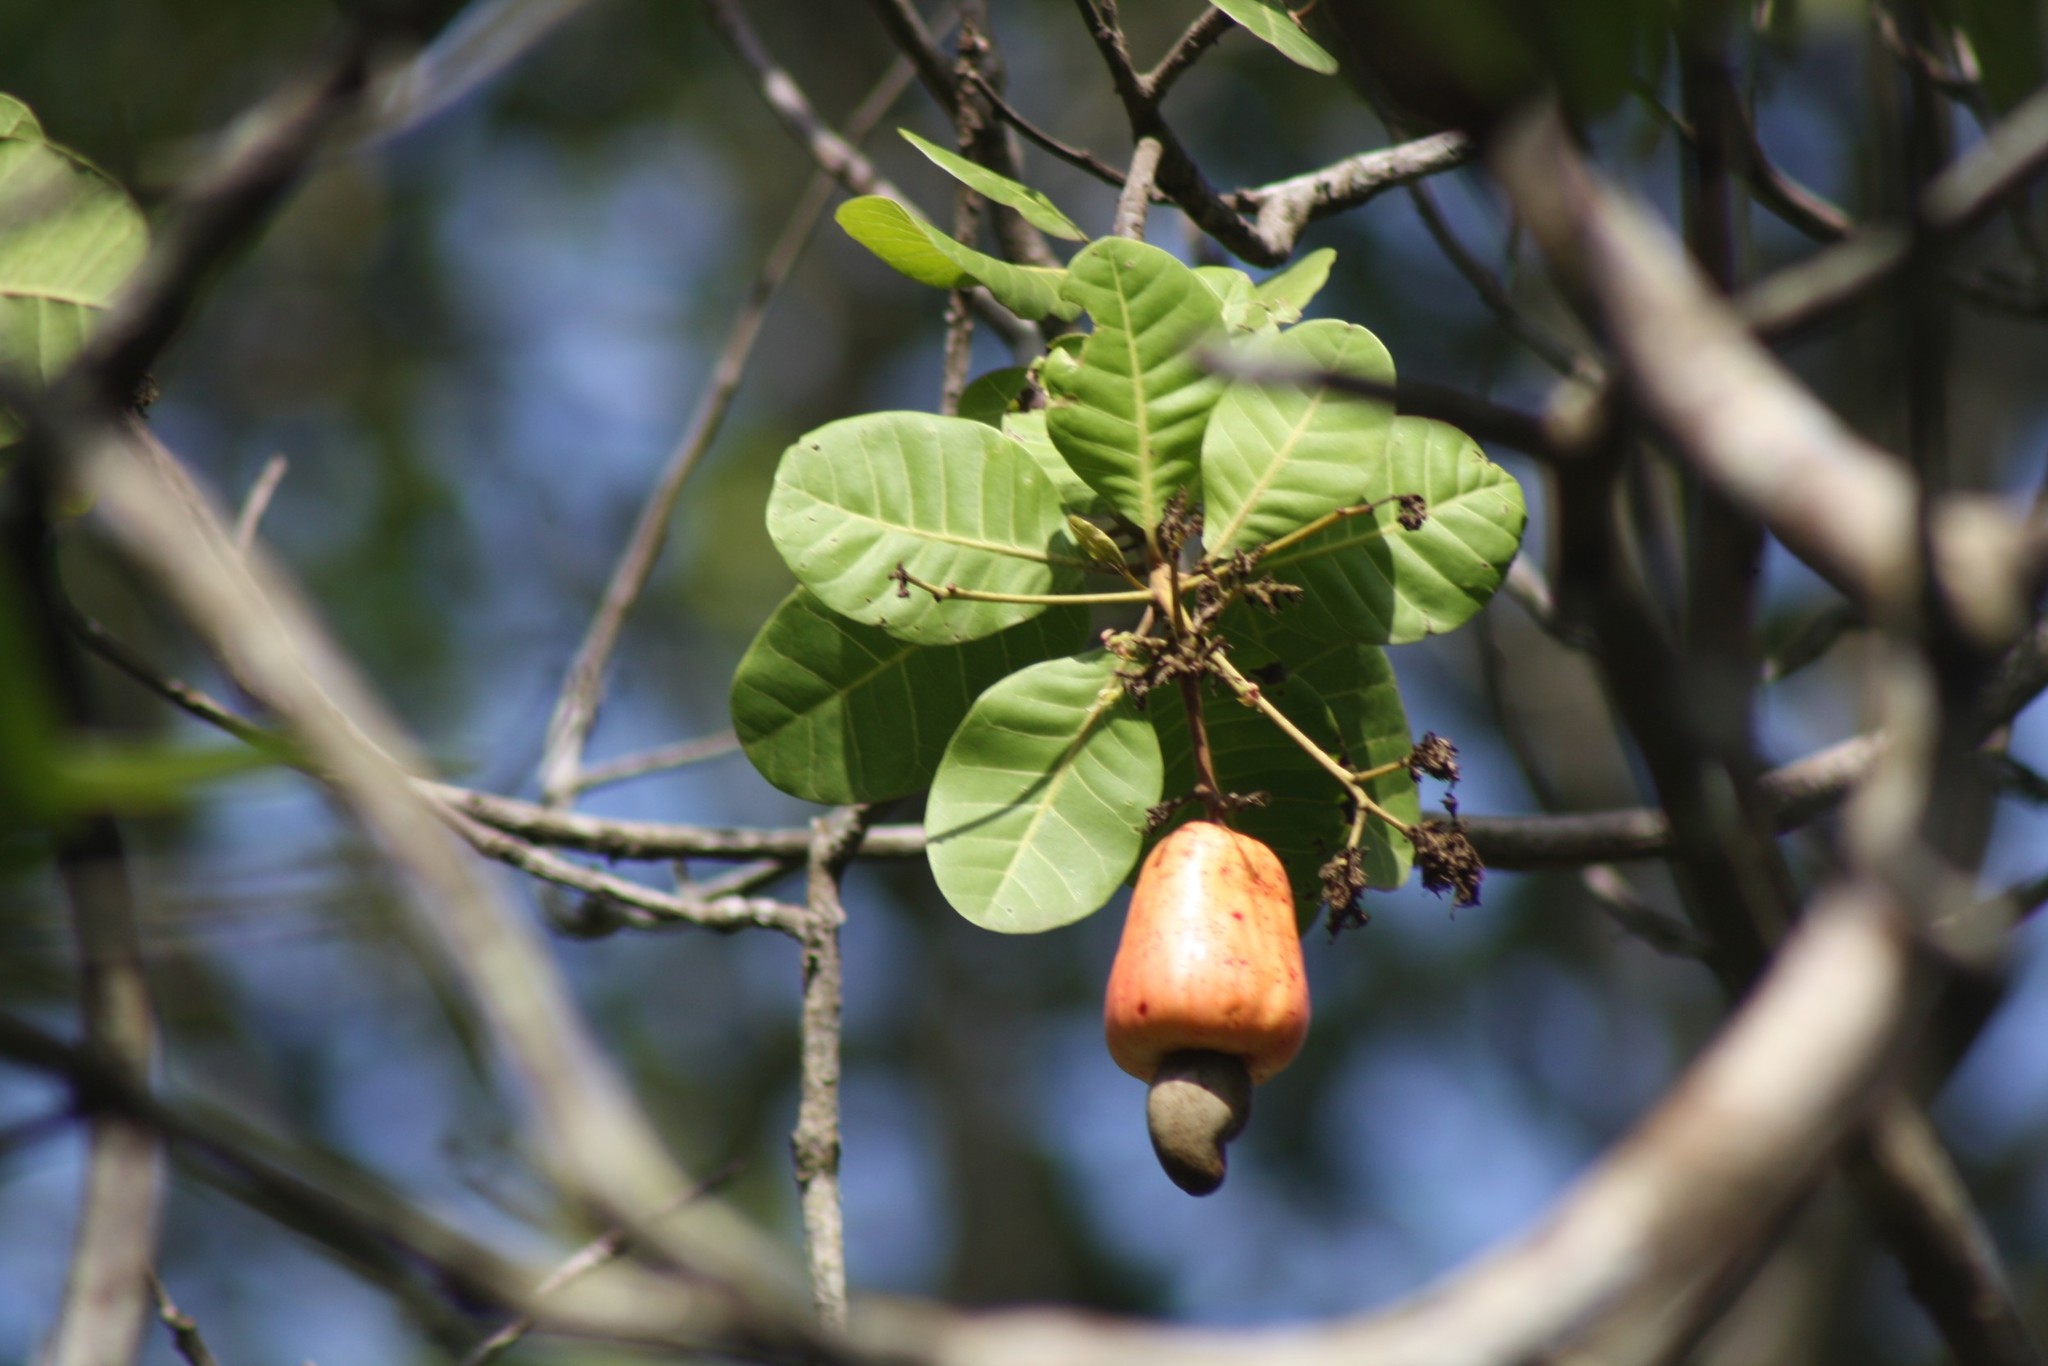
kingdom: Plantae
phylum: Tracheophyta
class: Magnoliopsida
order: Sapindales
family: Anacardiaceae
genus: Anacardium
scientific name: Anacardium occidentale
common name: Cashew
